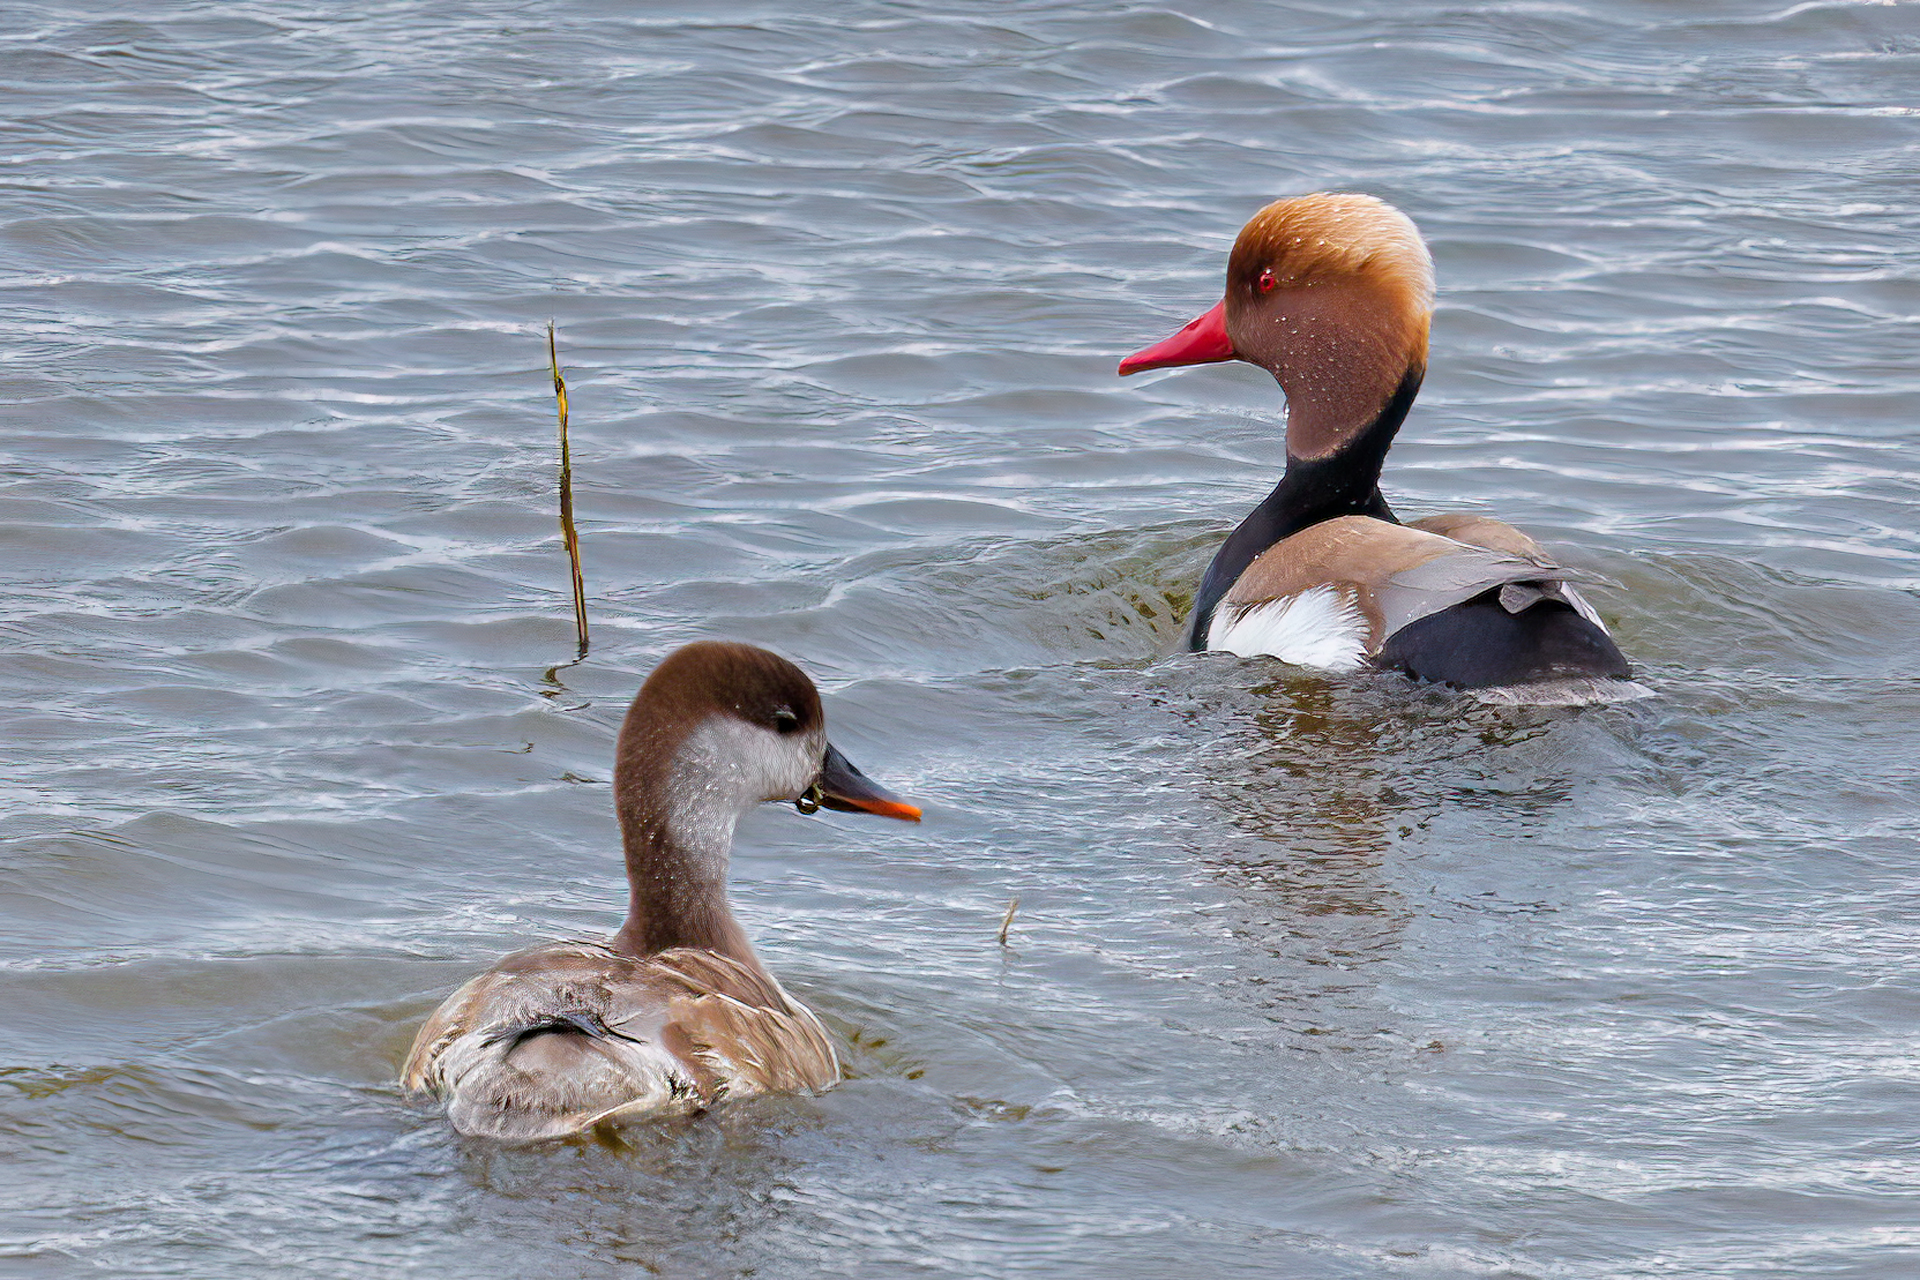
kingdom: Animalia
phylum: Chordata
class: Aves
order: Anseriformes
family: Anatidae
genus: Netta
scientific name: Netta rufina
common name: Red-crested pochard
